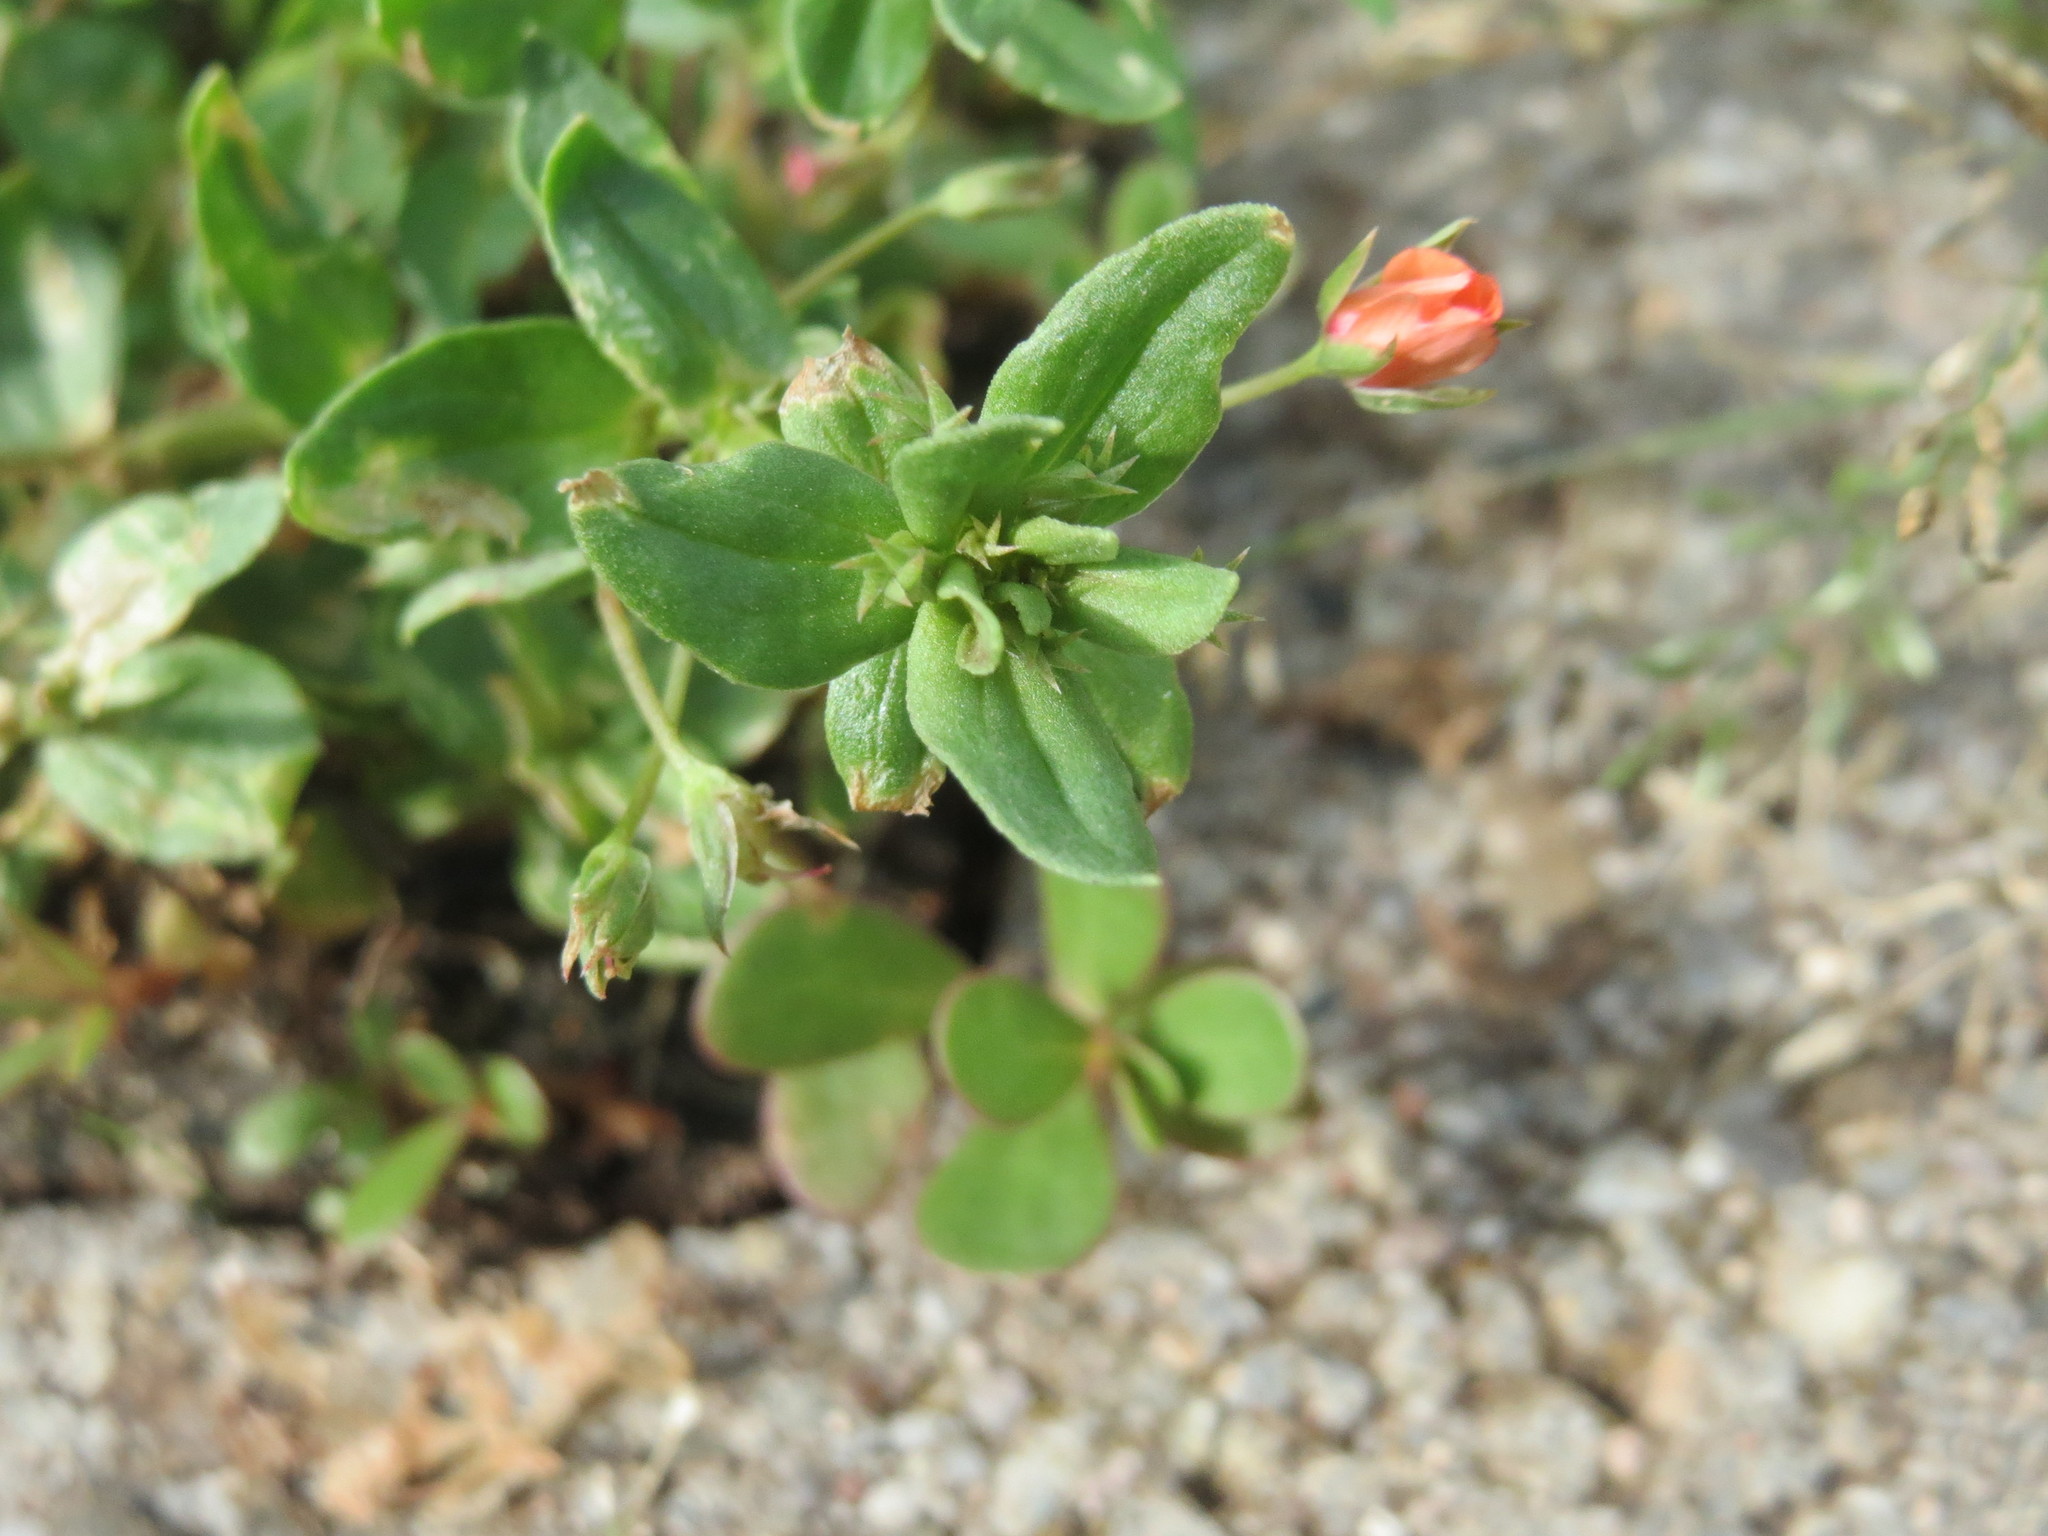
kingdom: Plantae
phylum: Tracheophyta
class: Magnoliopsida
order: Ericales
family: Primulaceae
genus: Lysimachia
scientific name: Lysimachia arvensis
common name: Scarlet pimpernel
